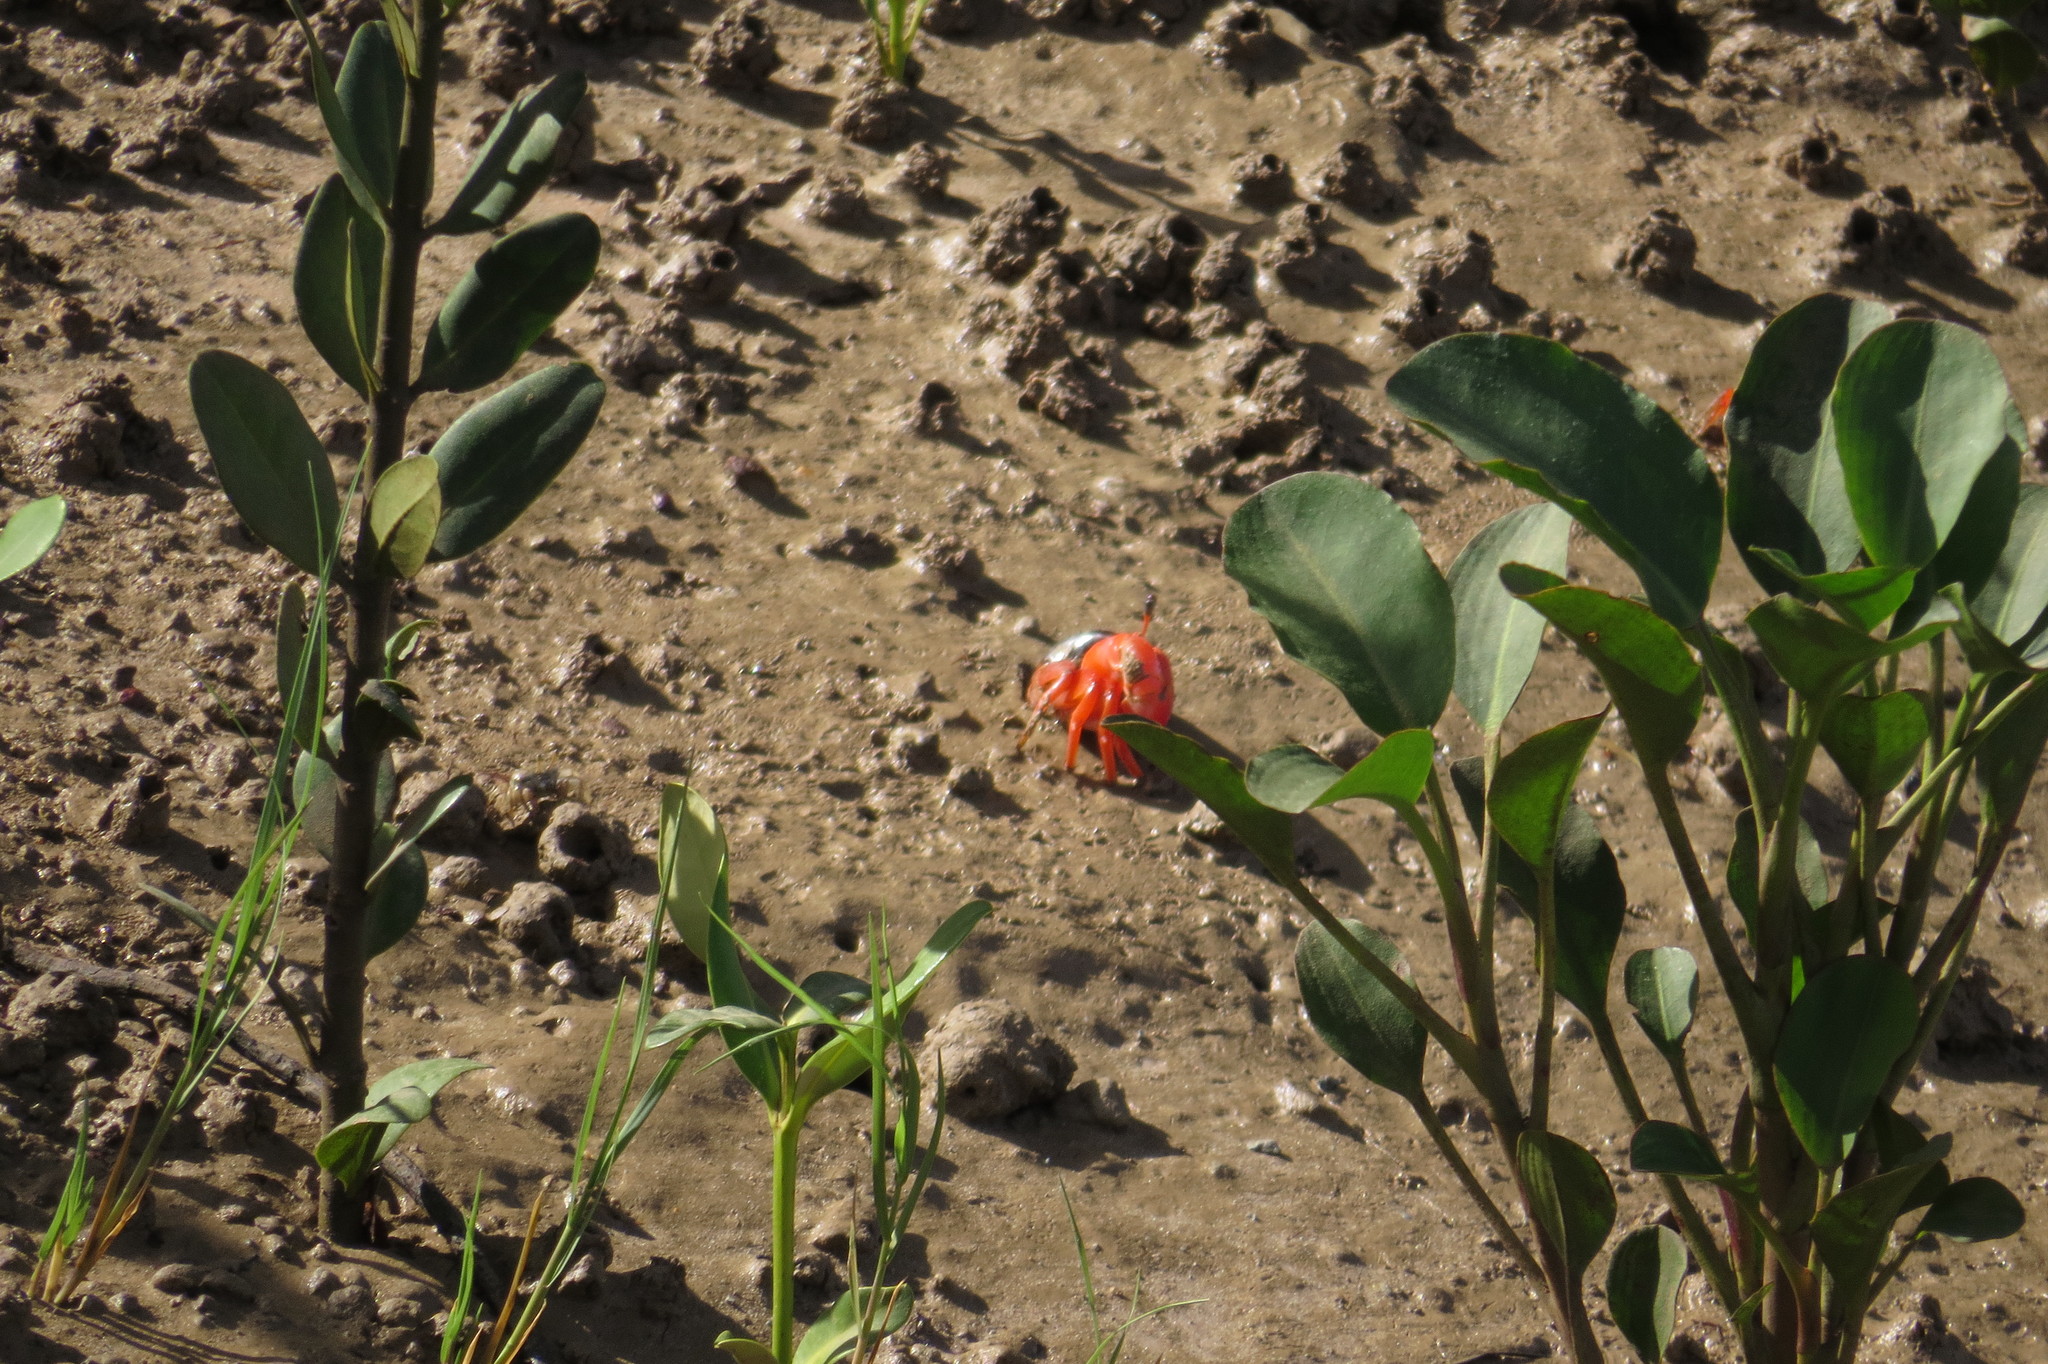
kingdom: Animalia
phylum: Arthropoda
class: Malacostraca
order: Decapoda
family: Ocypodidae
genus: Tubuca
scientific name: Tubuca flammula
